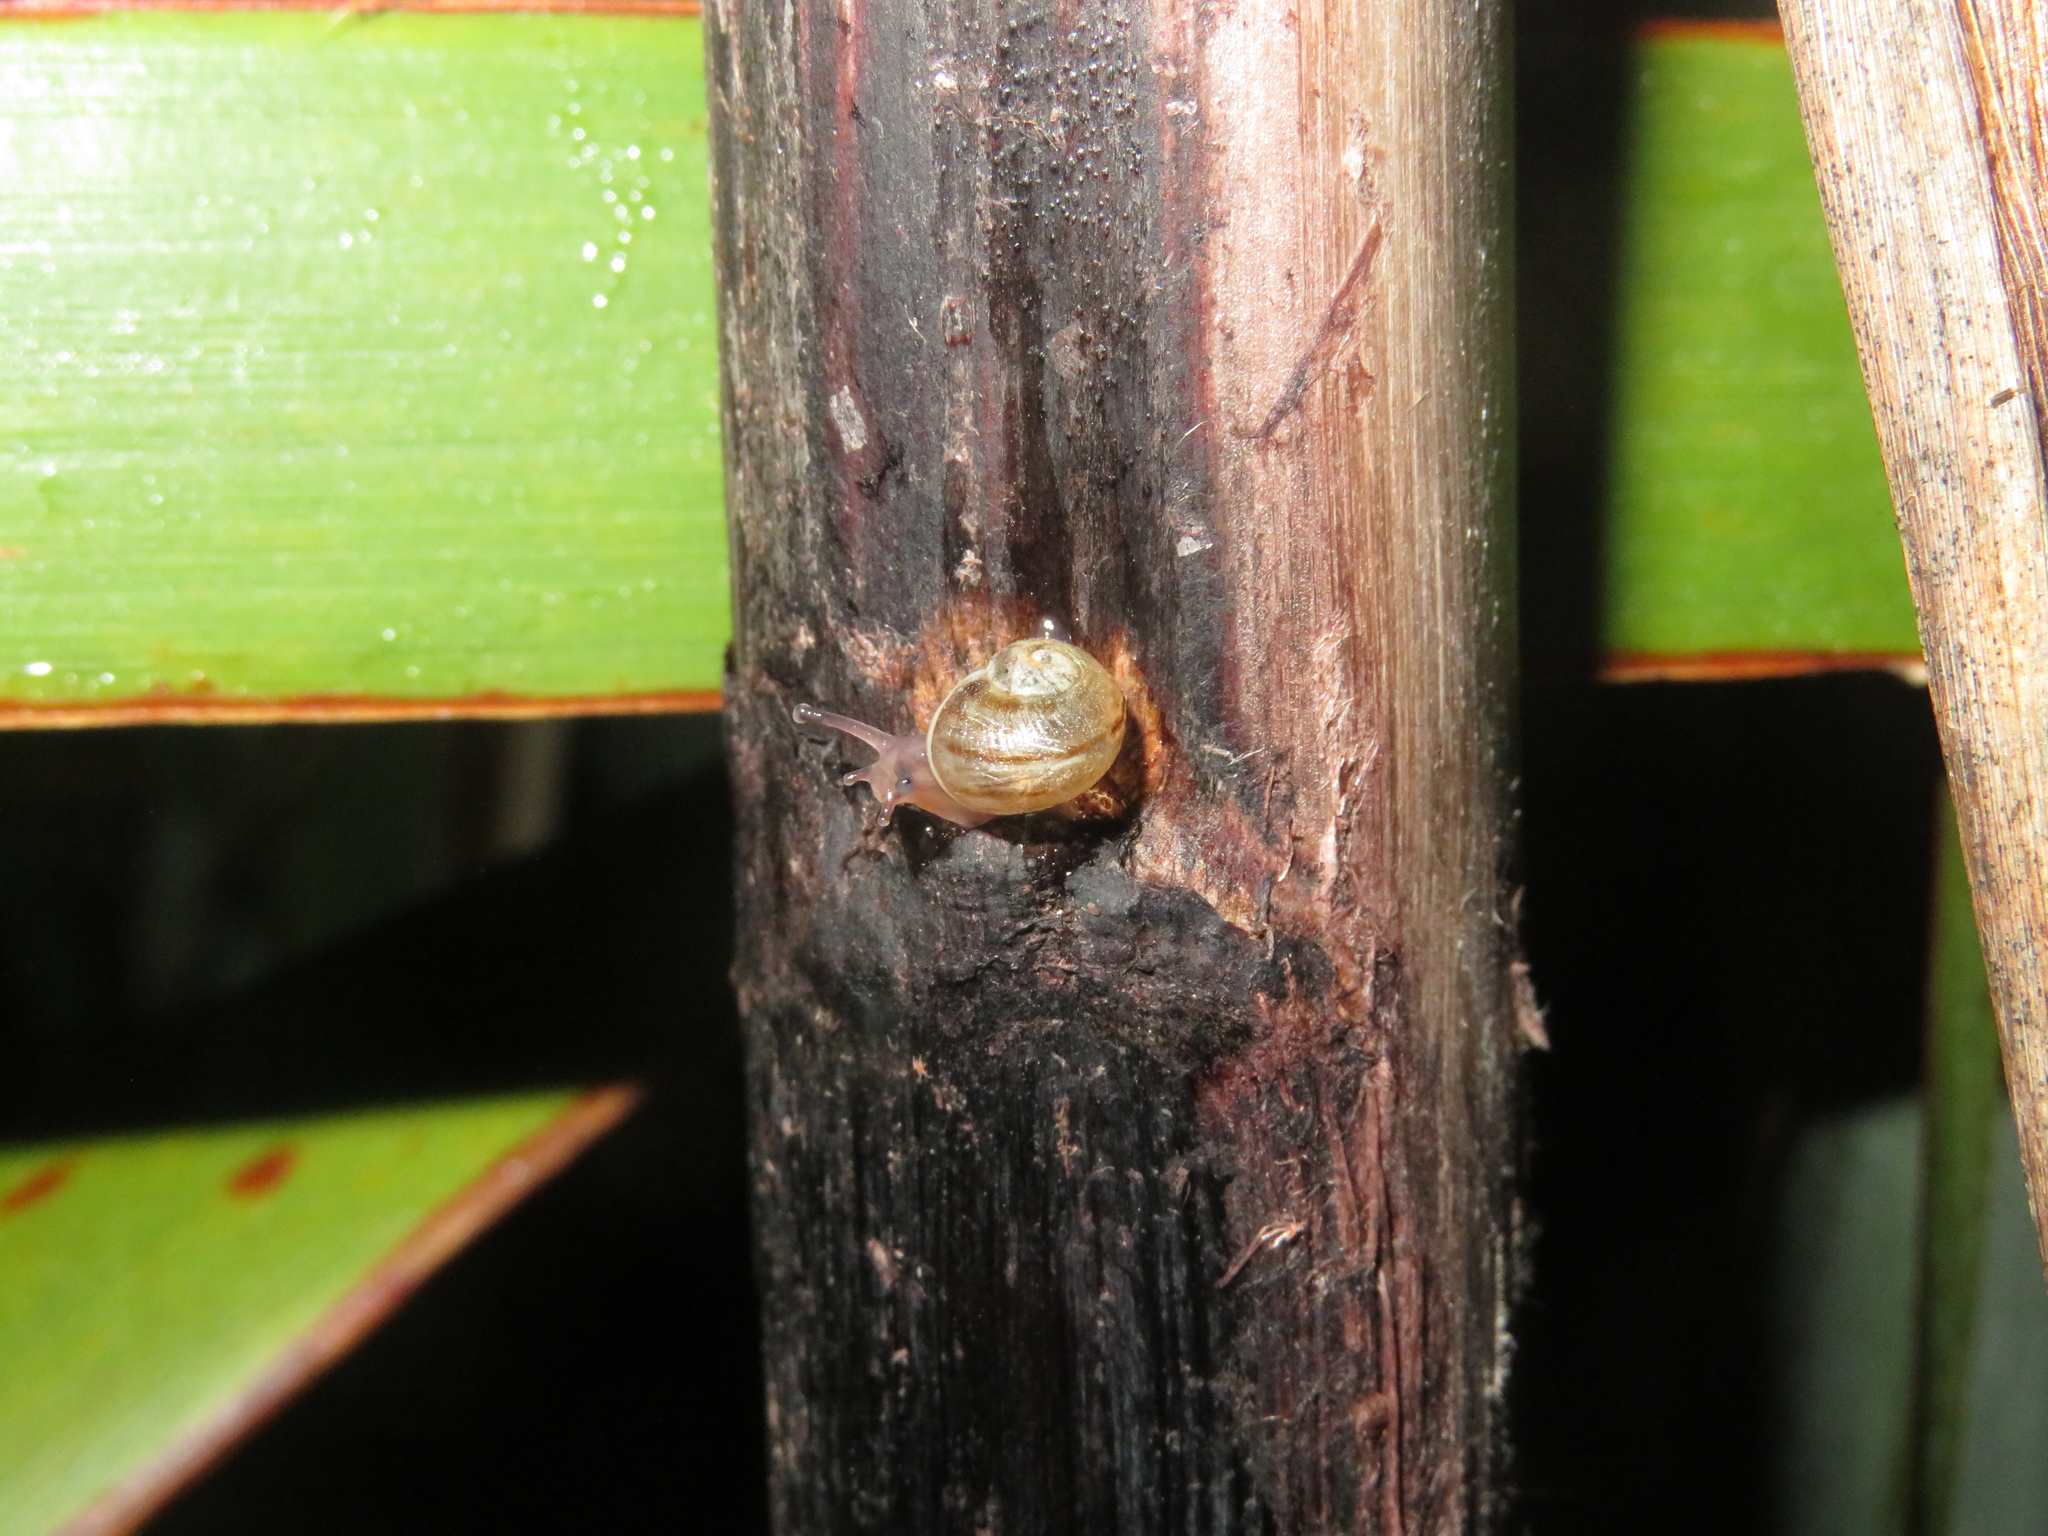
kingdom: Animalia
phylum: Mollusca
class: Gastropoda
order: Stylommatophora
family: Helicidae
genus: Cornu
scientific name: Cornu aspersum
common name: Brown garden snail
